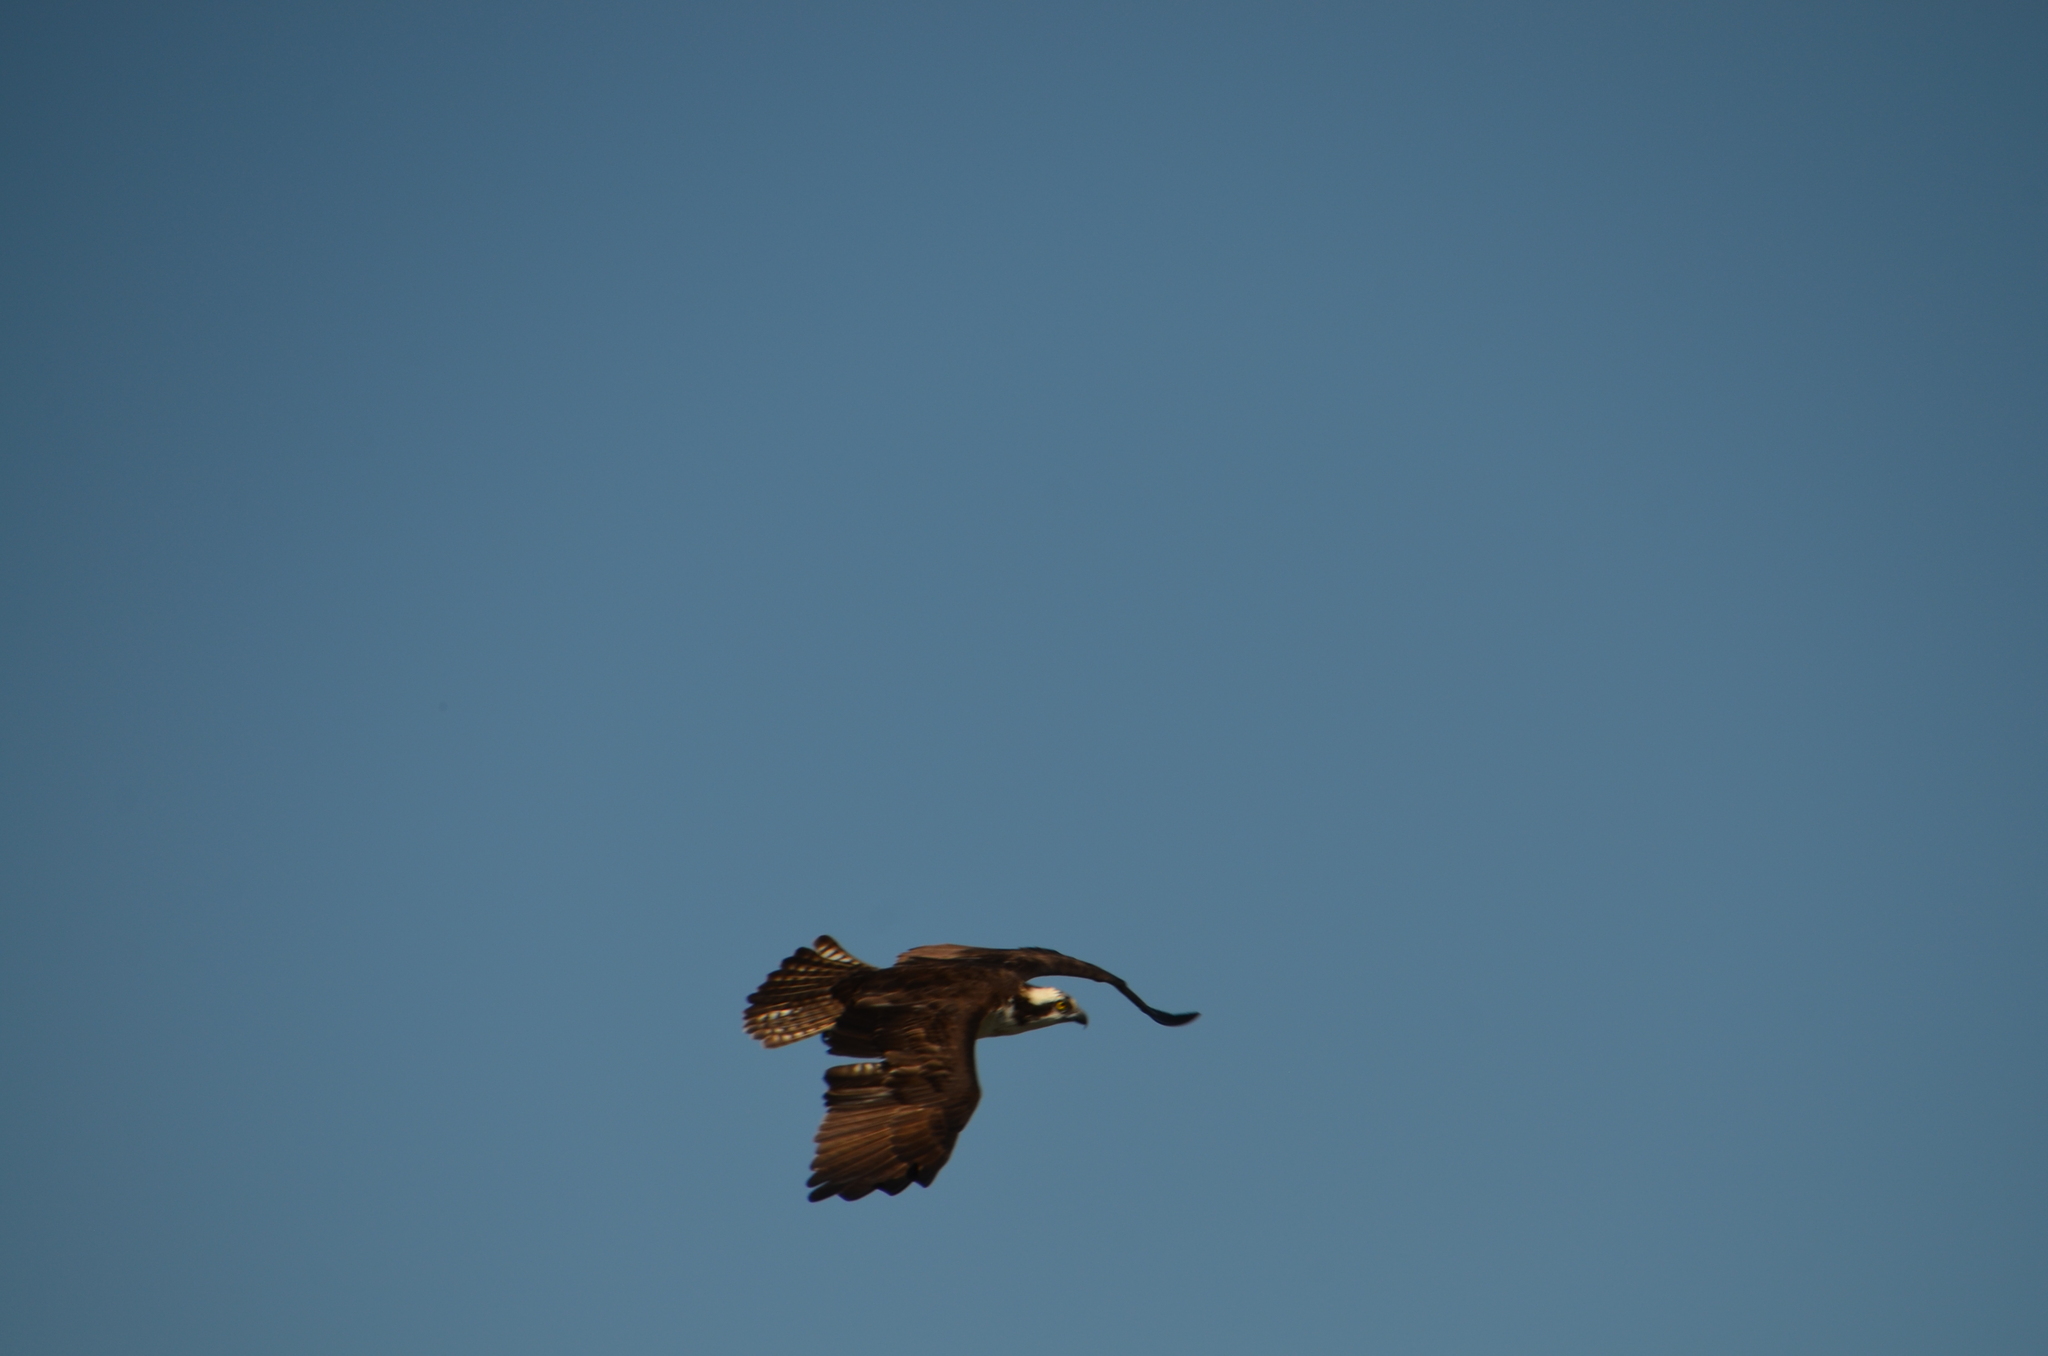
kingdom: Animalia
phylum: Chordata
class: Aves
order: Accipitriformes
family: Pandionidae
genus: Pandion
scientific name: Pandion haliaetus
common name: Osprey
